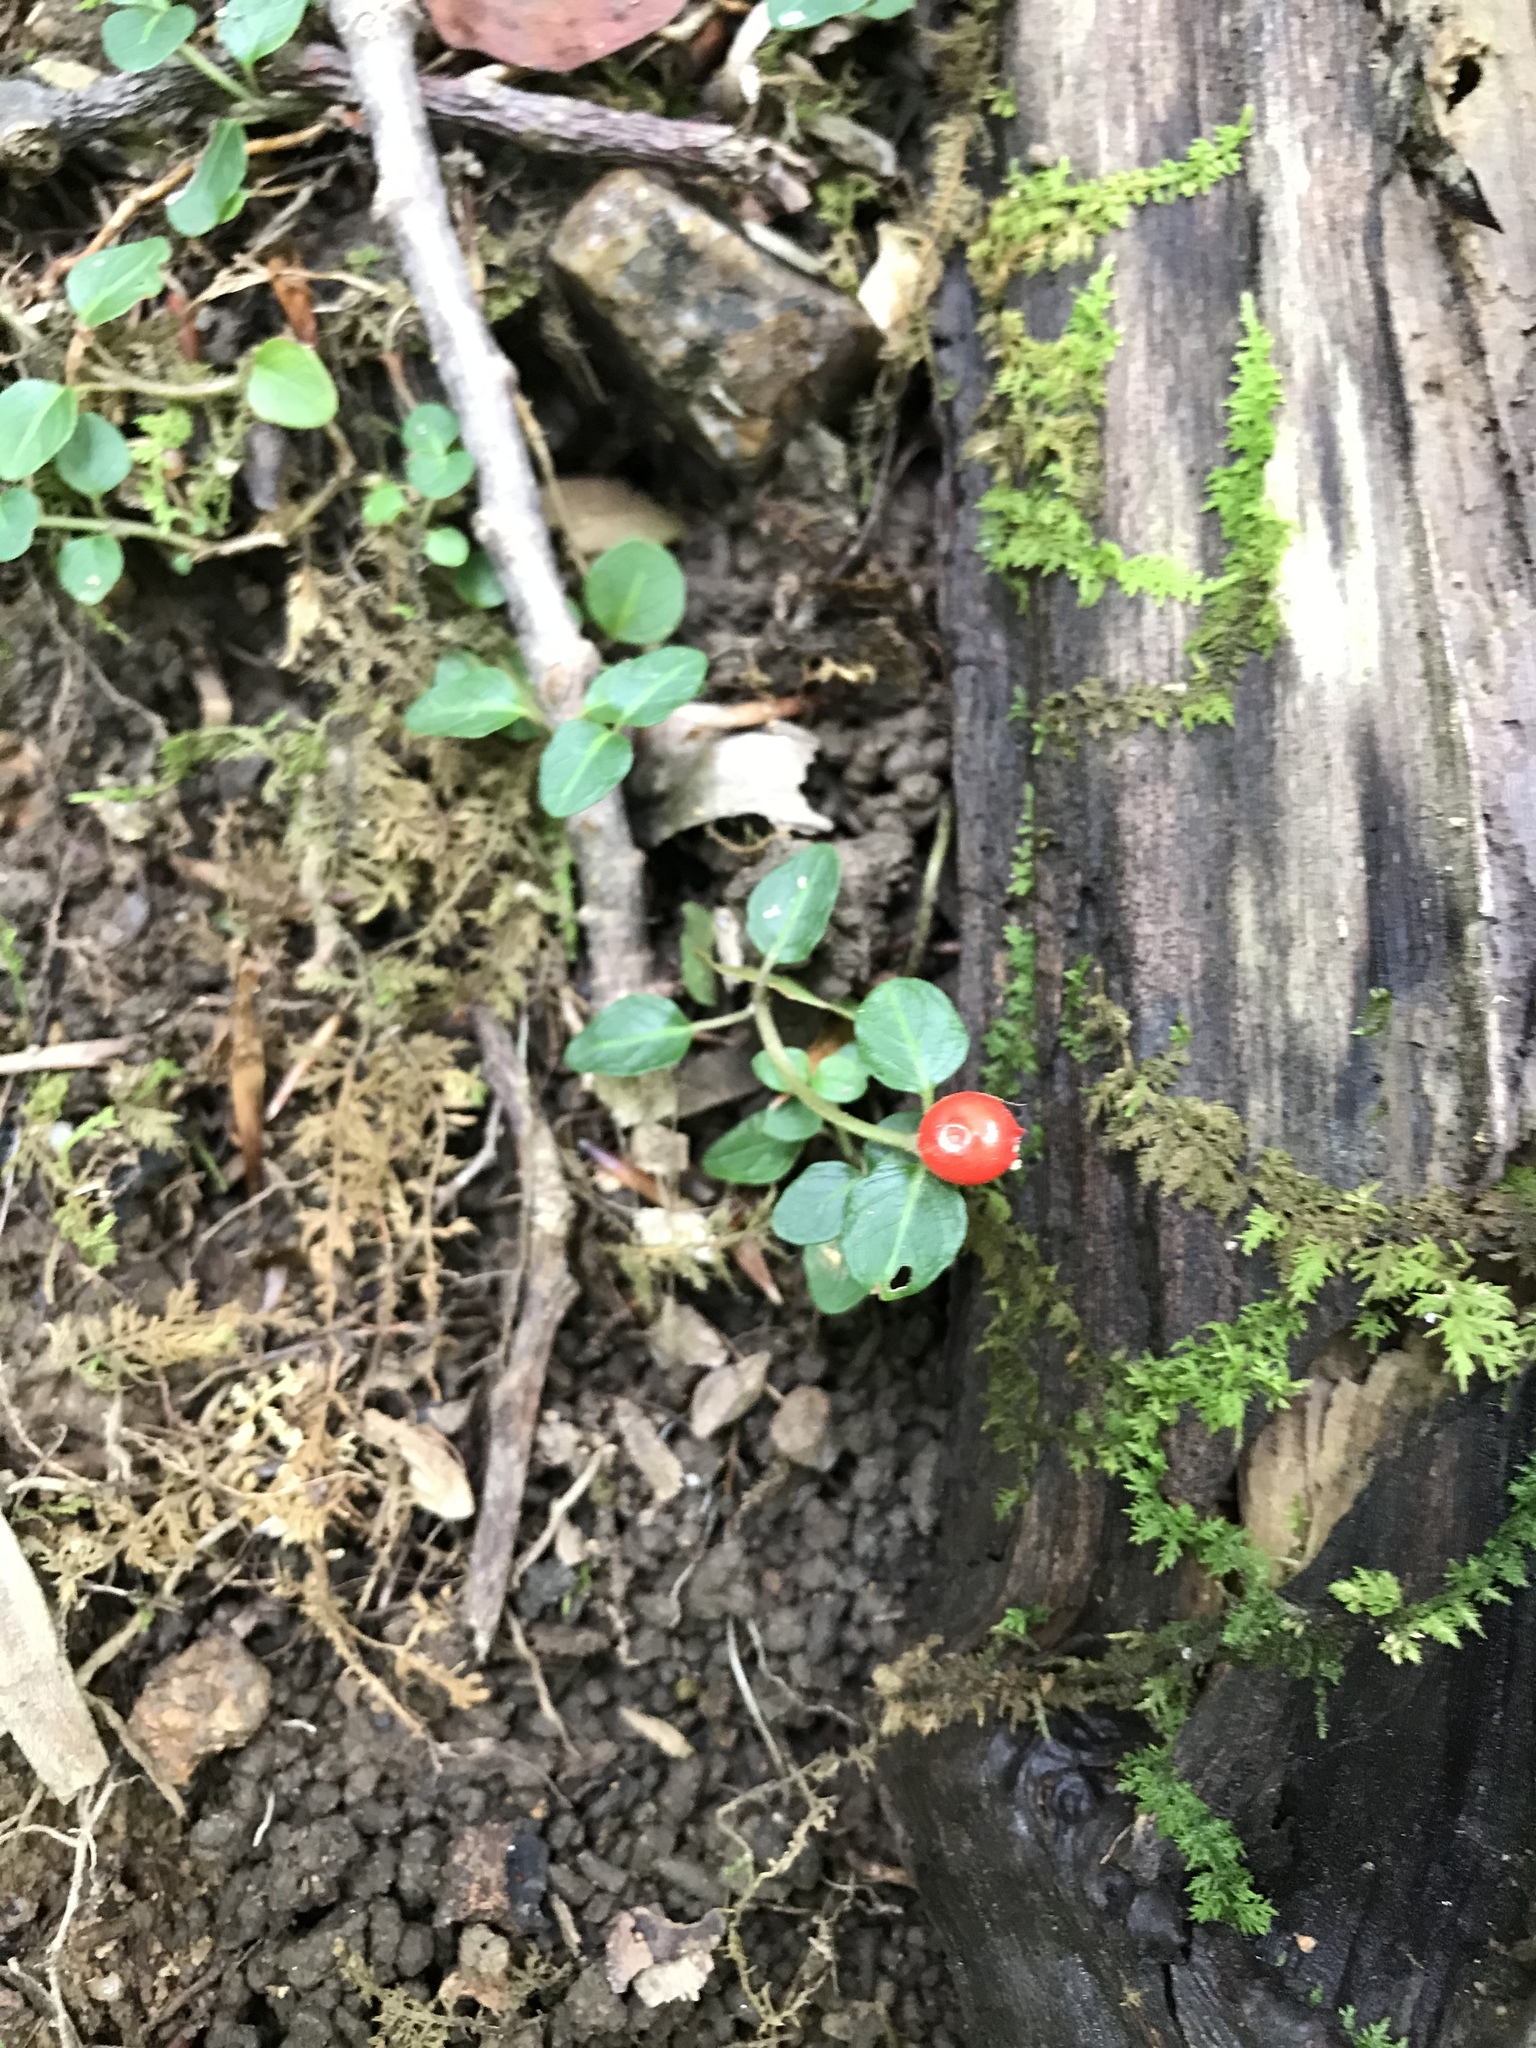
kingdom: Plantae
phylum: Tracheophyta
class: Magnoliopsida
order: Gentianales
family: Rubiaceae
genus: Mitchella
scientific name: Mitchella repens
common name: Partridge-berry
